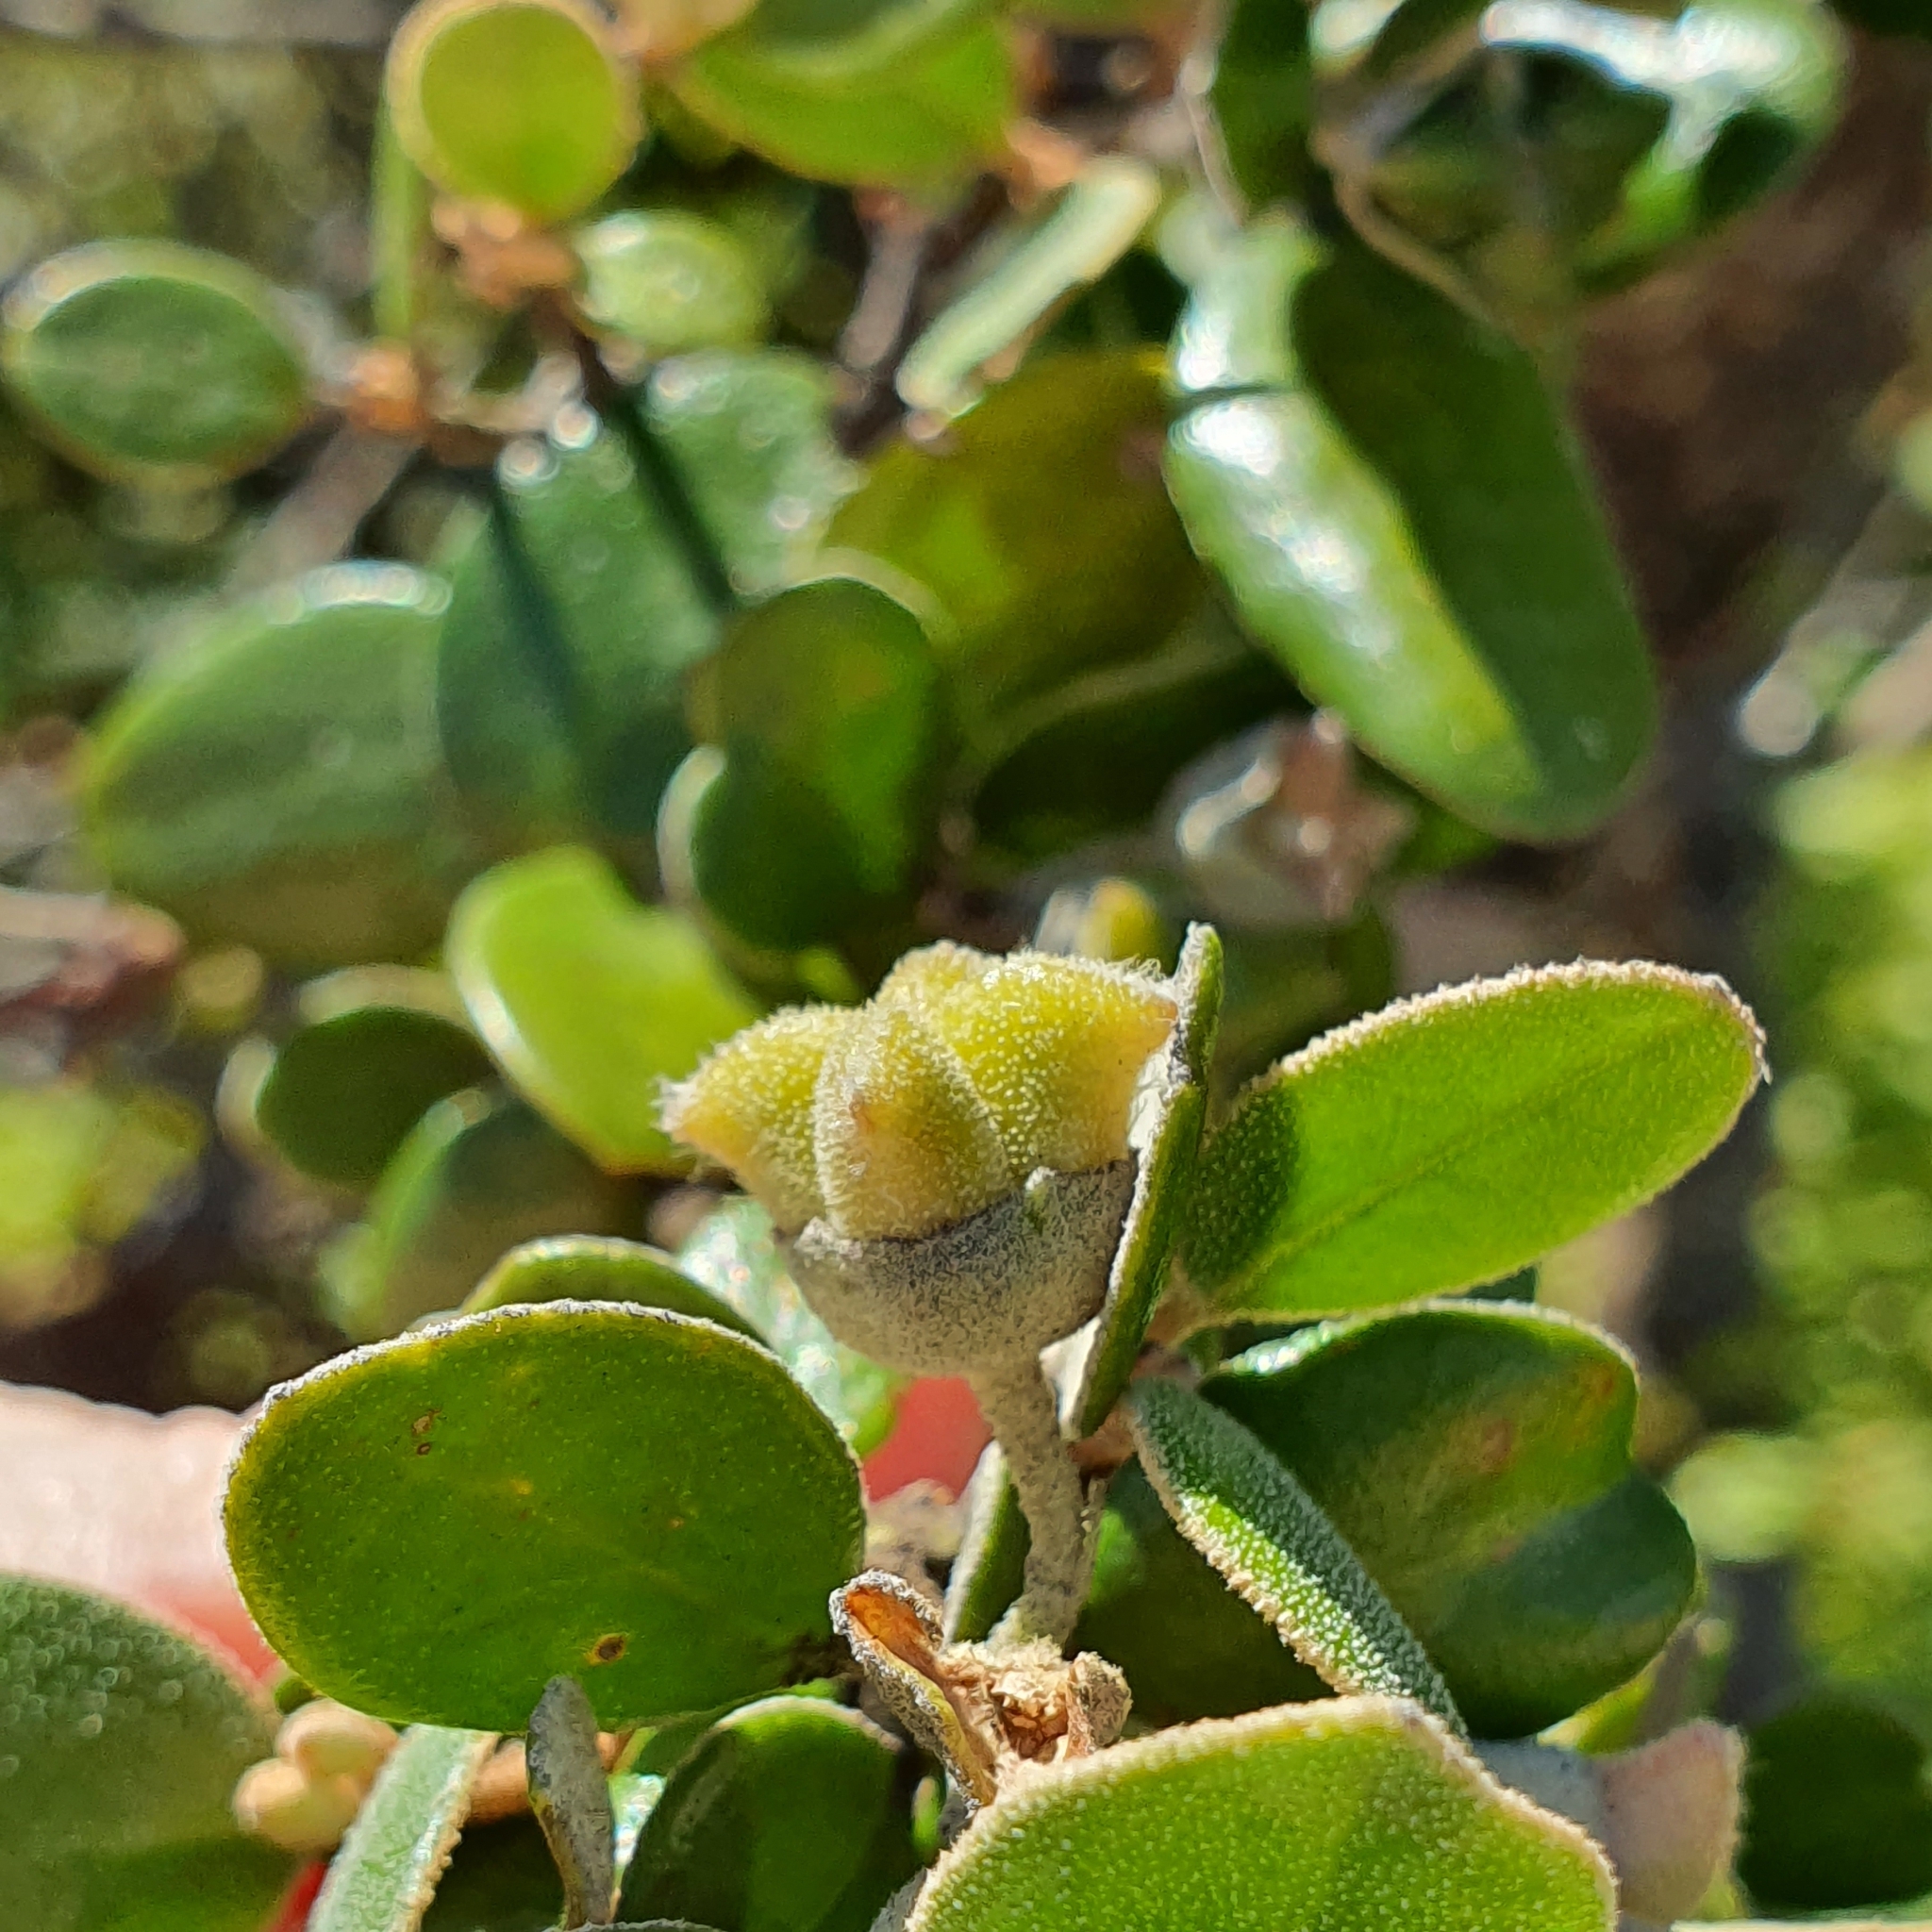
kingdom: Plantae
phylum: Tracheophyta
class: Magnoliopsida
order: Sapindales
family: Rutaceae
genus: Correa
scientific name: Correa backhouseana
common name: Tasmanian-fuchsia
